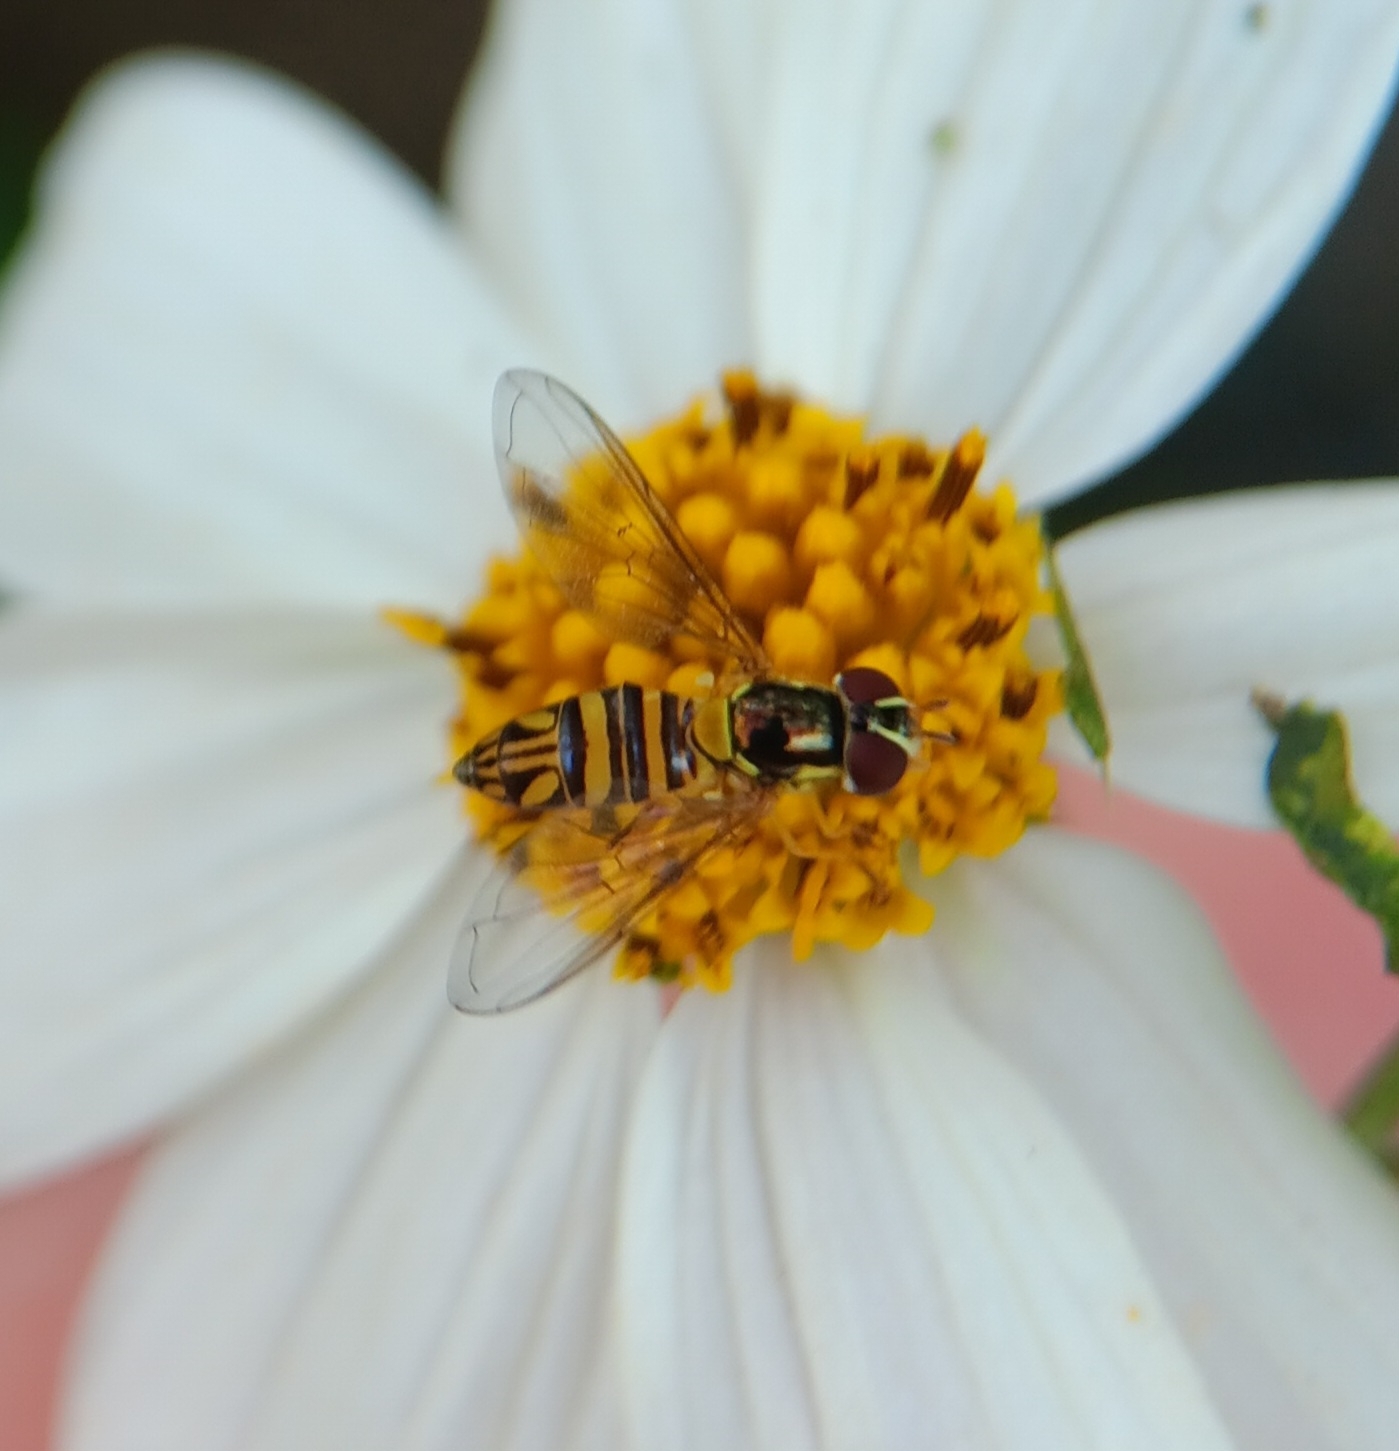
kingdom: Animalia
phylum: Arthropoda
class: Insecta
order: Diptera
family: Syrphidae
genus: Allograpta
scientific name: Allograpta obliqua
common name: Common oblique syrphid
